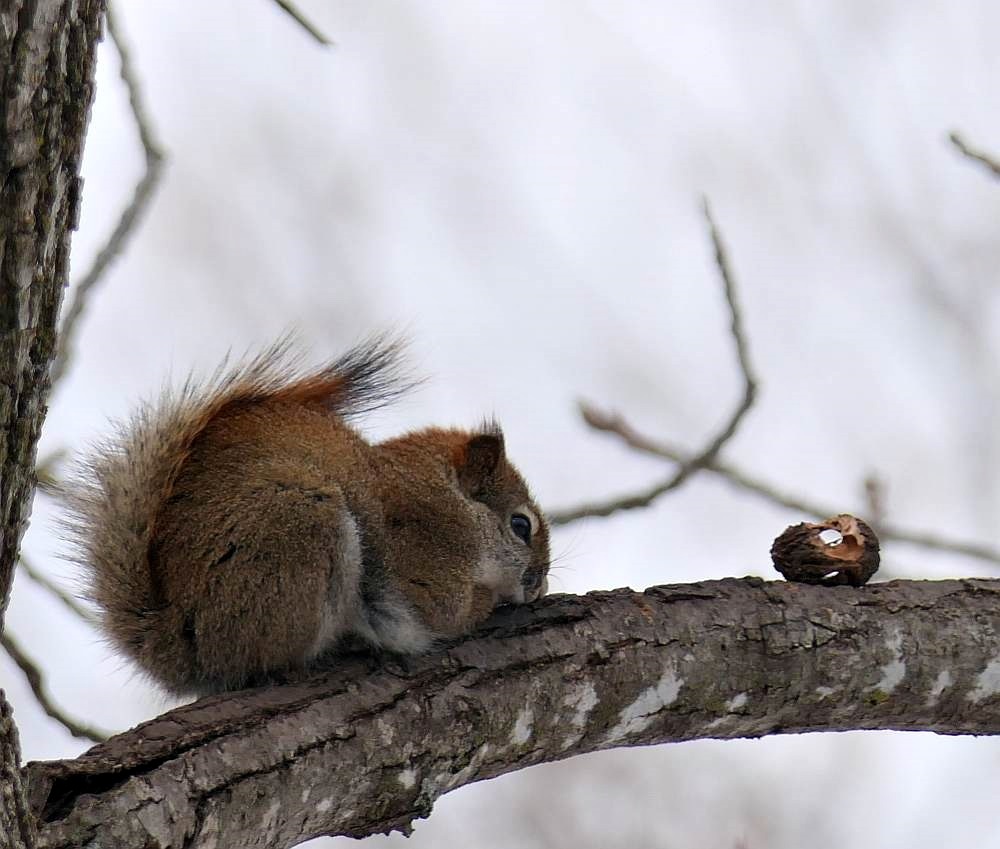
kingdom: Animalia
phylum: Chordata
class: Mammalia
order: Rodentia
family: Sciuridae
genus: Tamiasciurus
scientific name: Tamiasciurus hudsonicus
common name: Red squirrel
